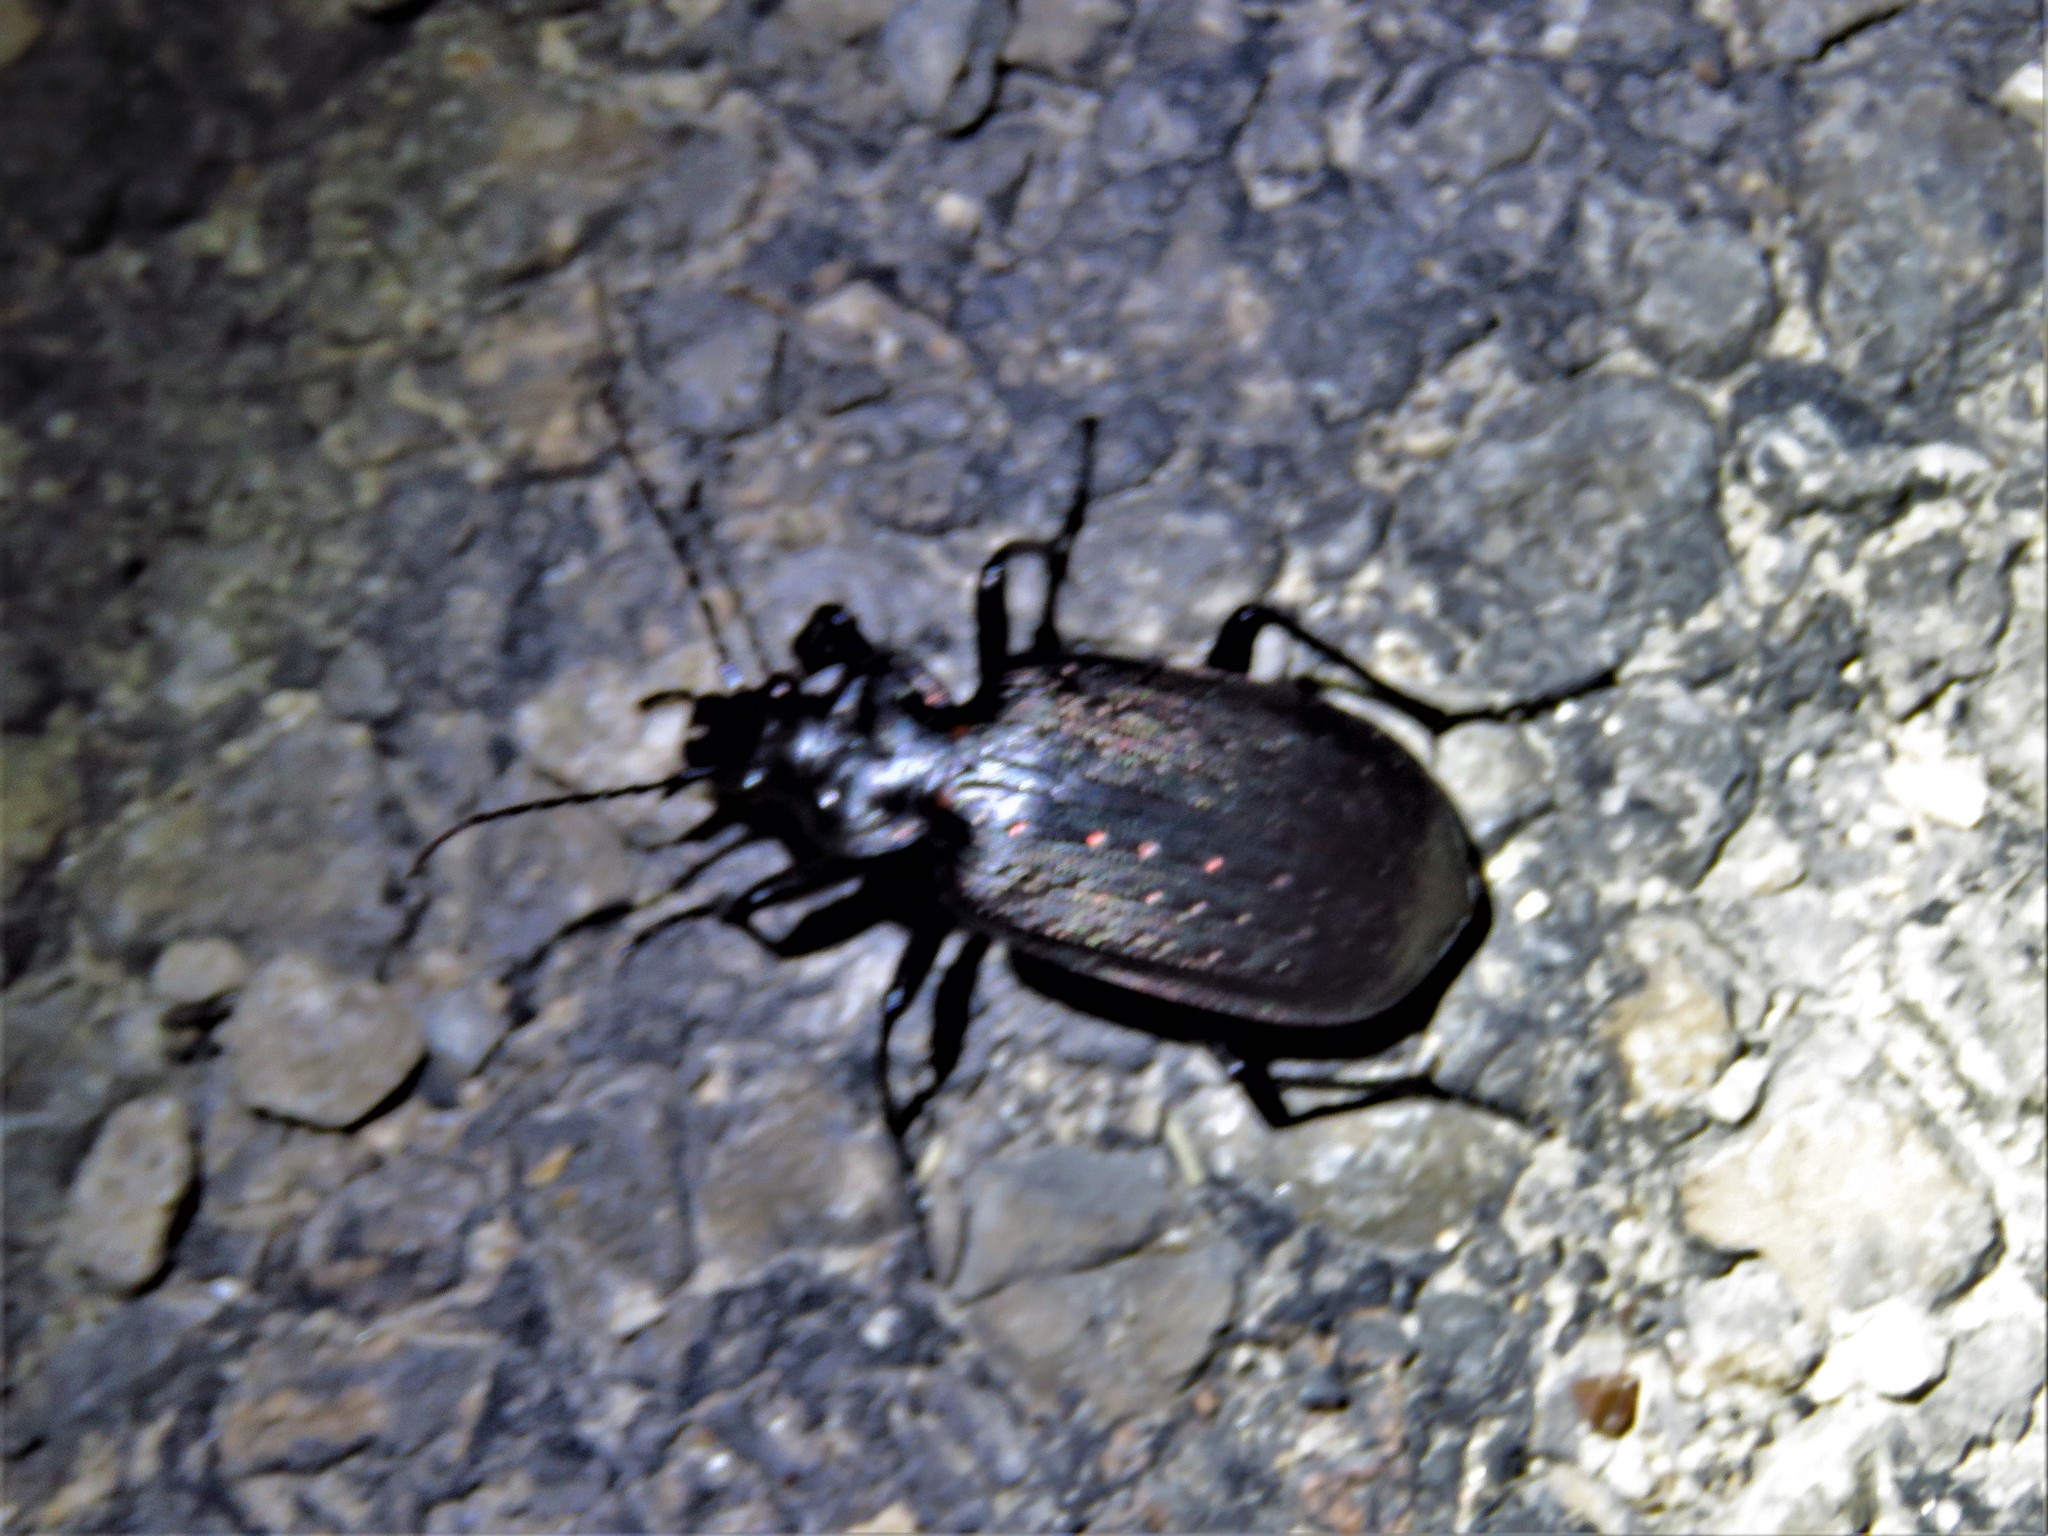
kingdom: Animalia
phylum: Arthropoda
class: Insecta
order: Coleoptera
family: Carabidae
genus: Calosoma
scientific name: Calosoma sayi
